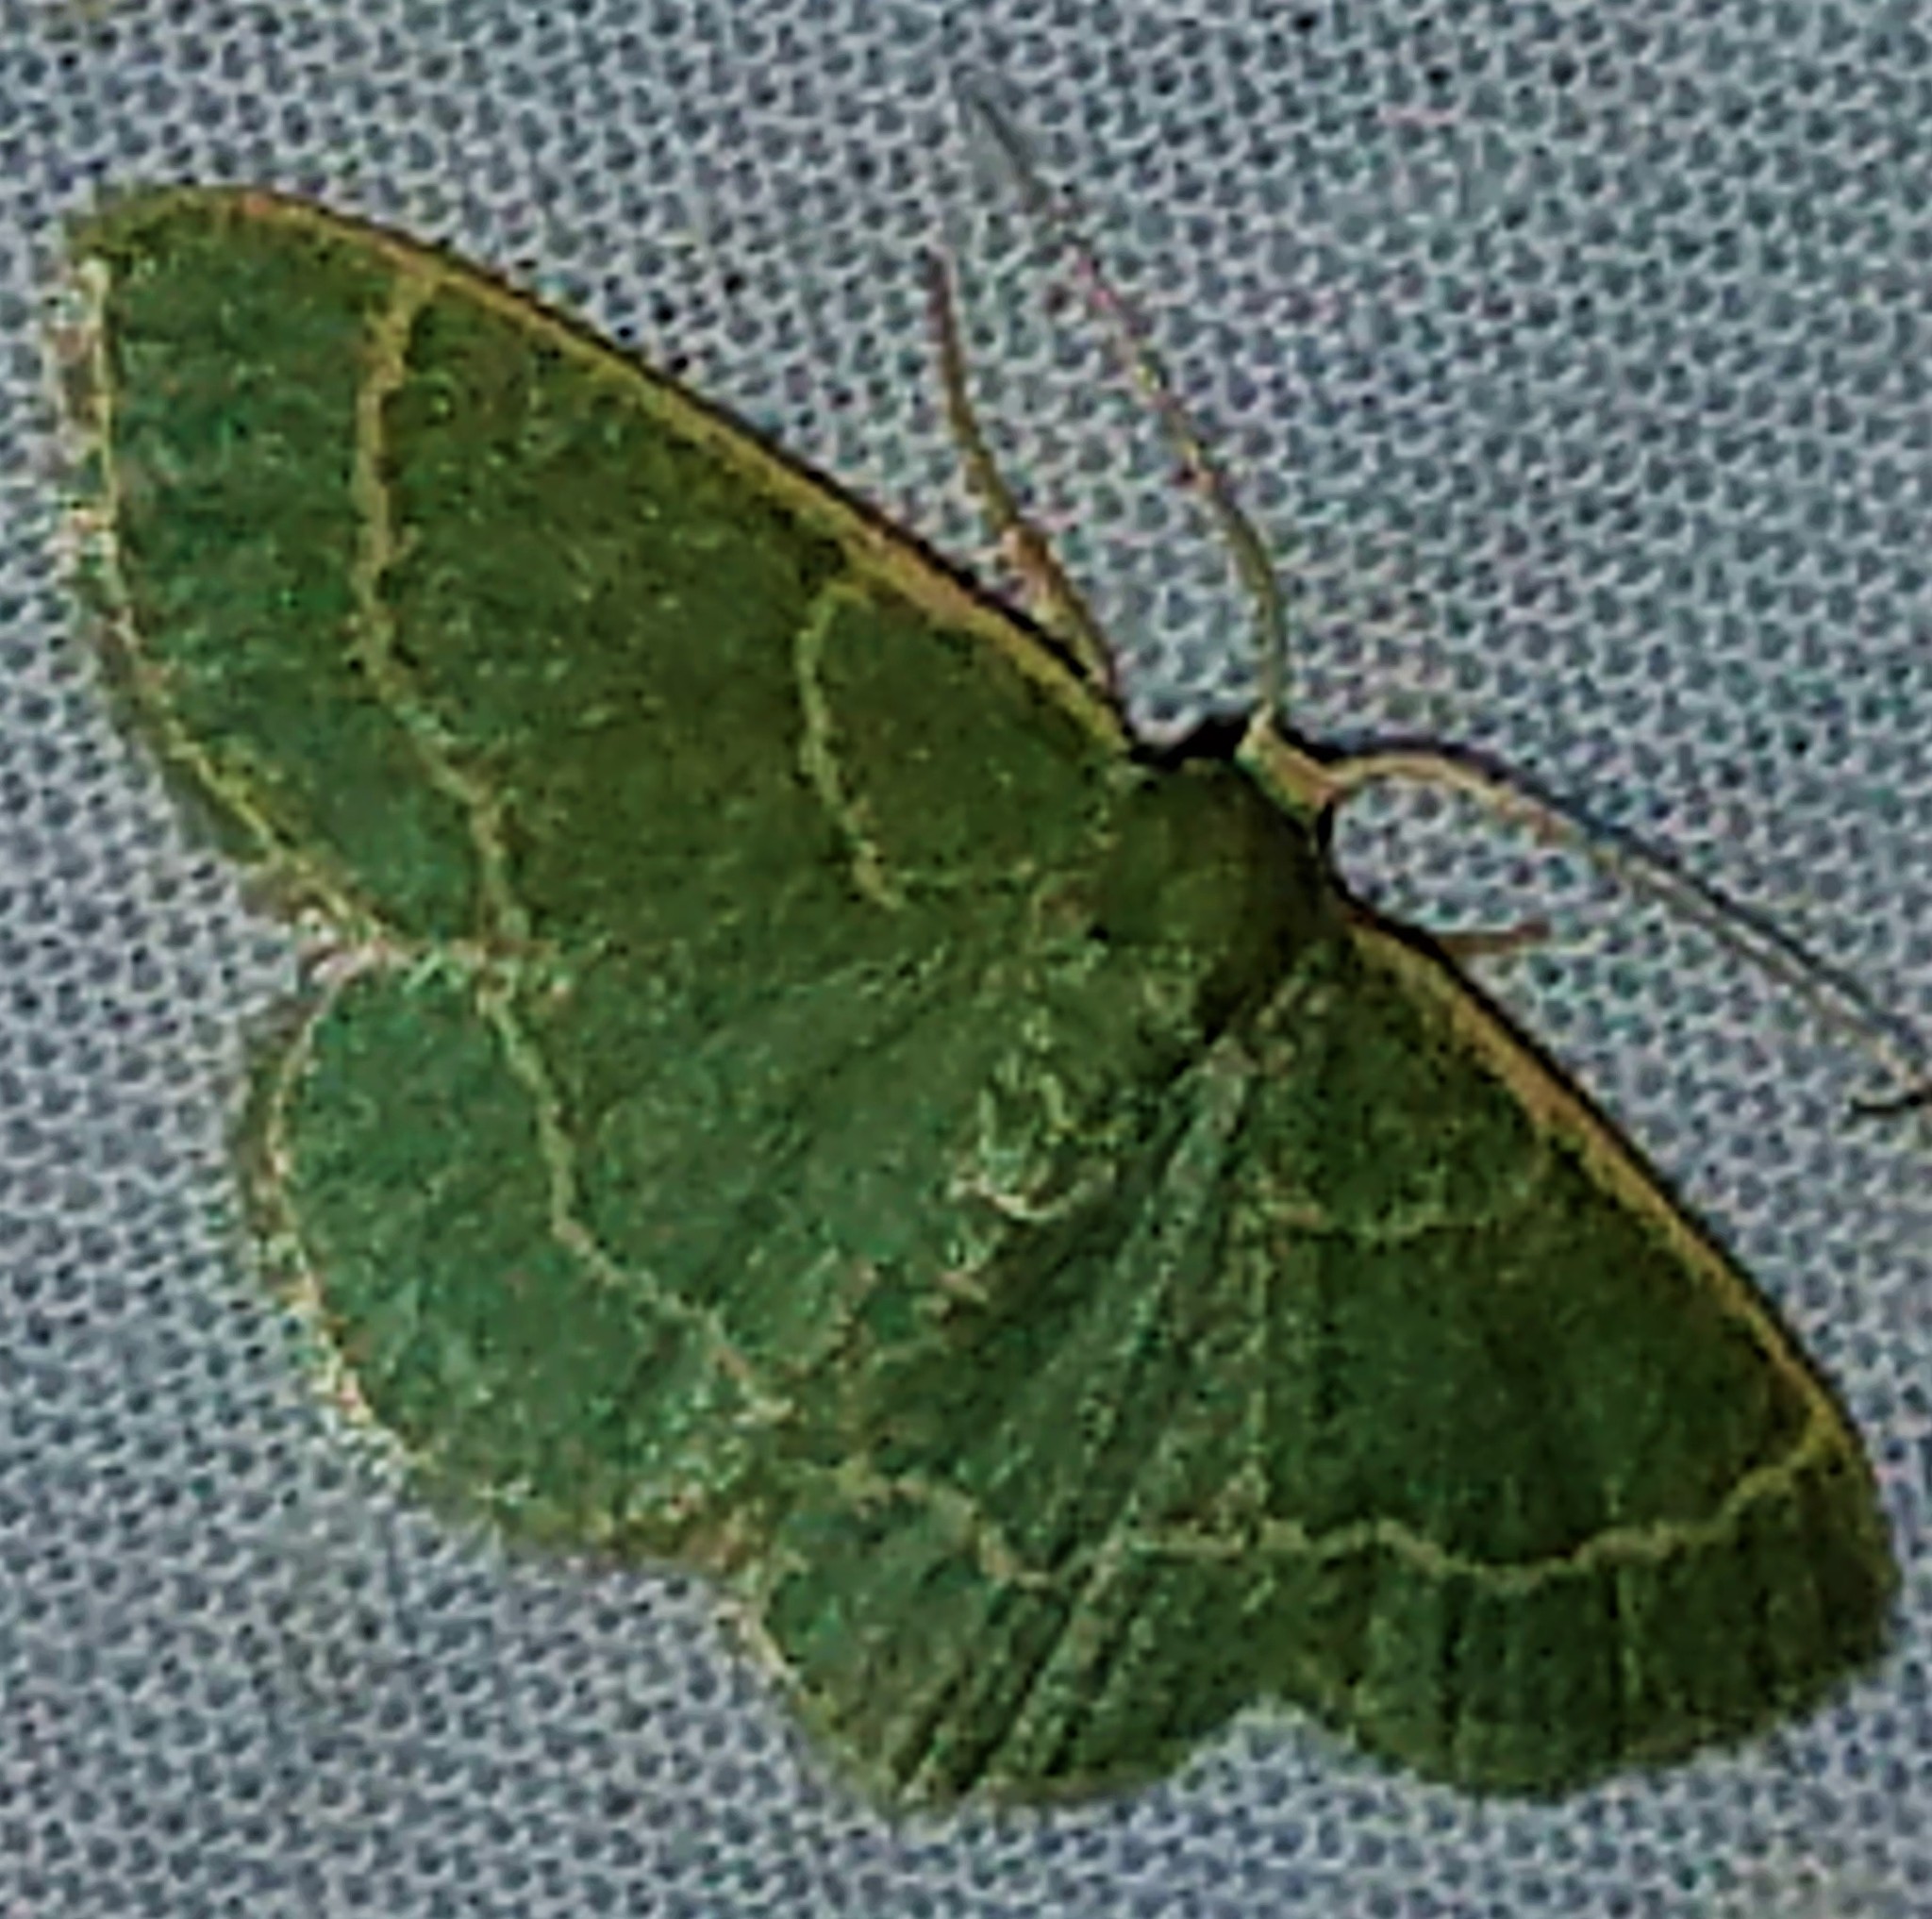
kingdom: Animalia
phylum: Arthropoda
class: Insecta
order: Lepidoptera
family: Geometridae
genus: Chlorochlamys
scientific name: Chlorochlamys phyllinaria
